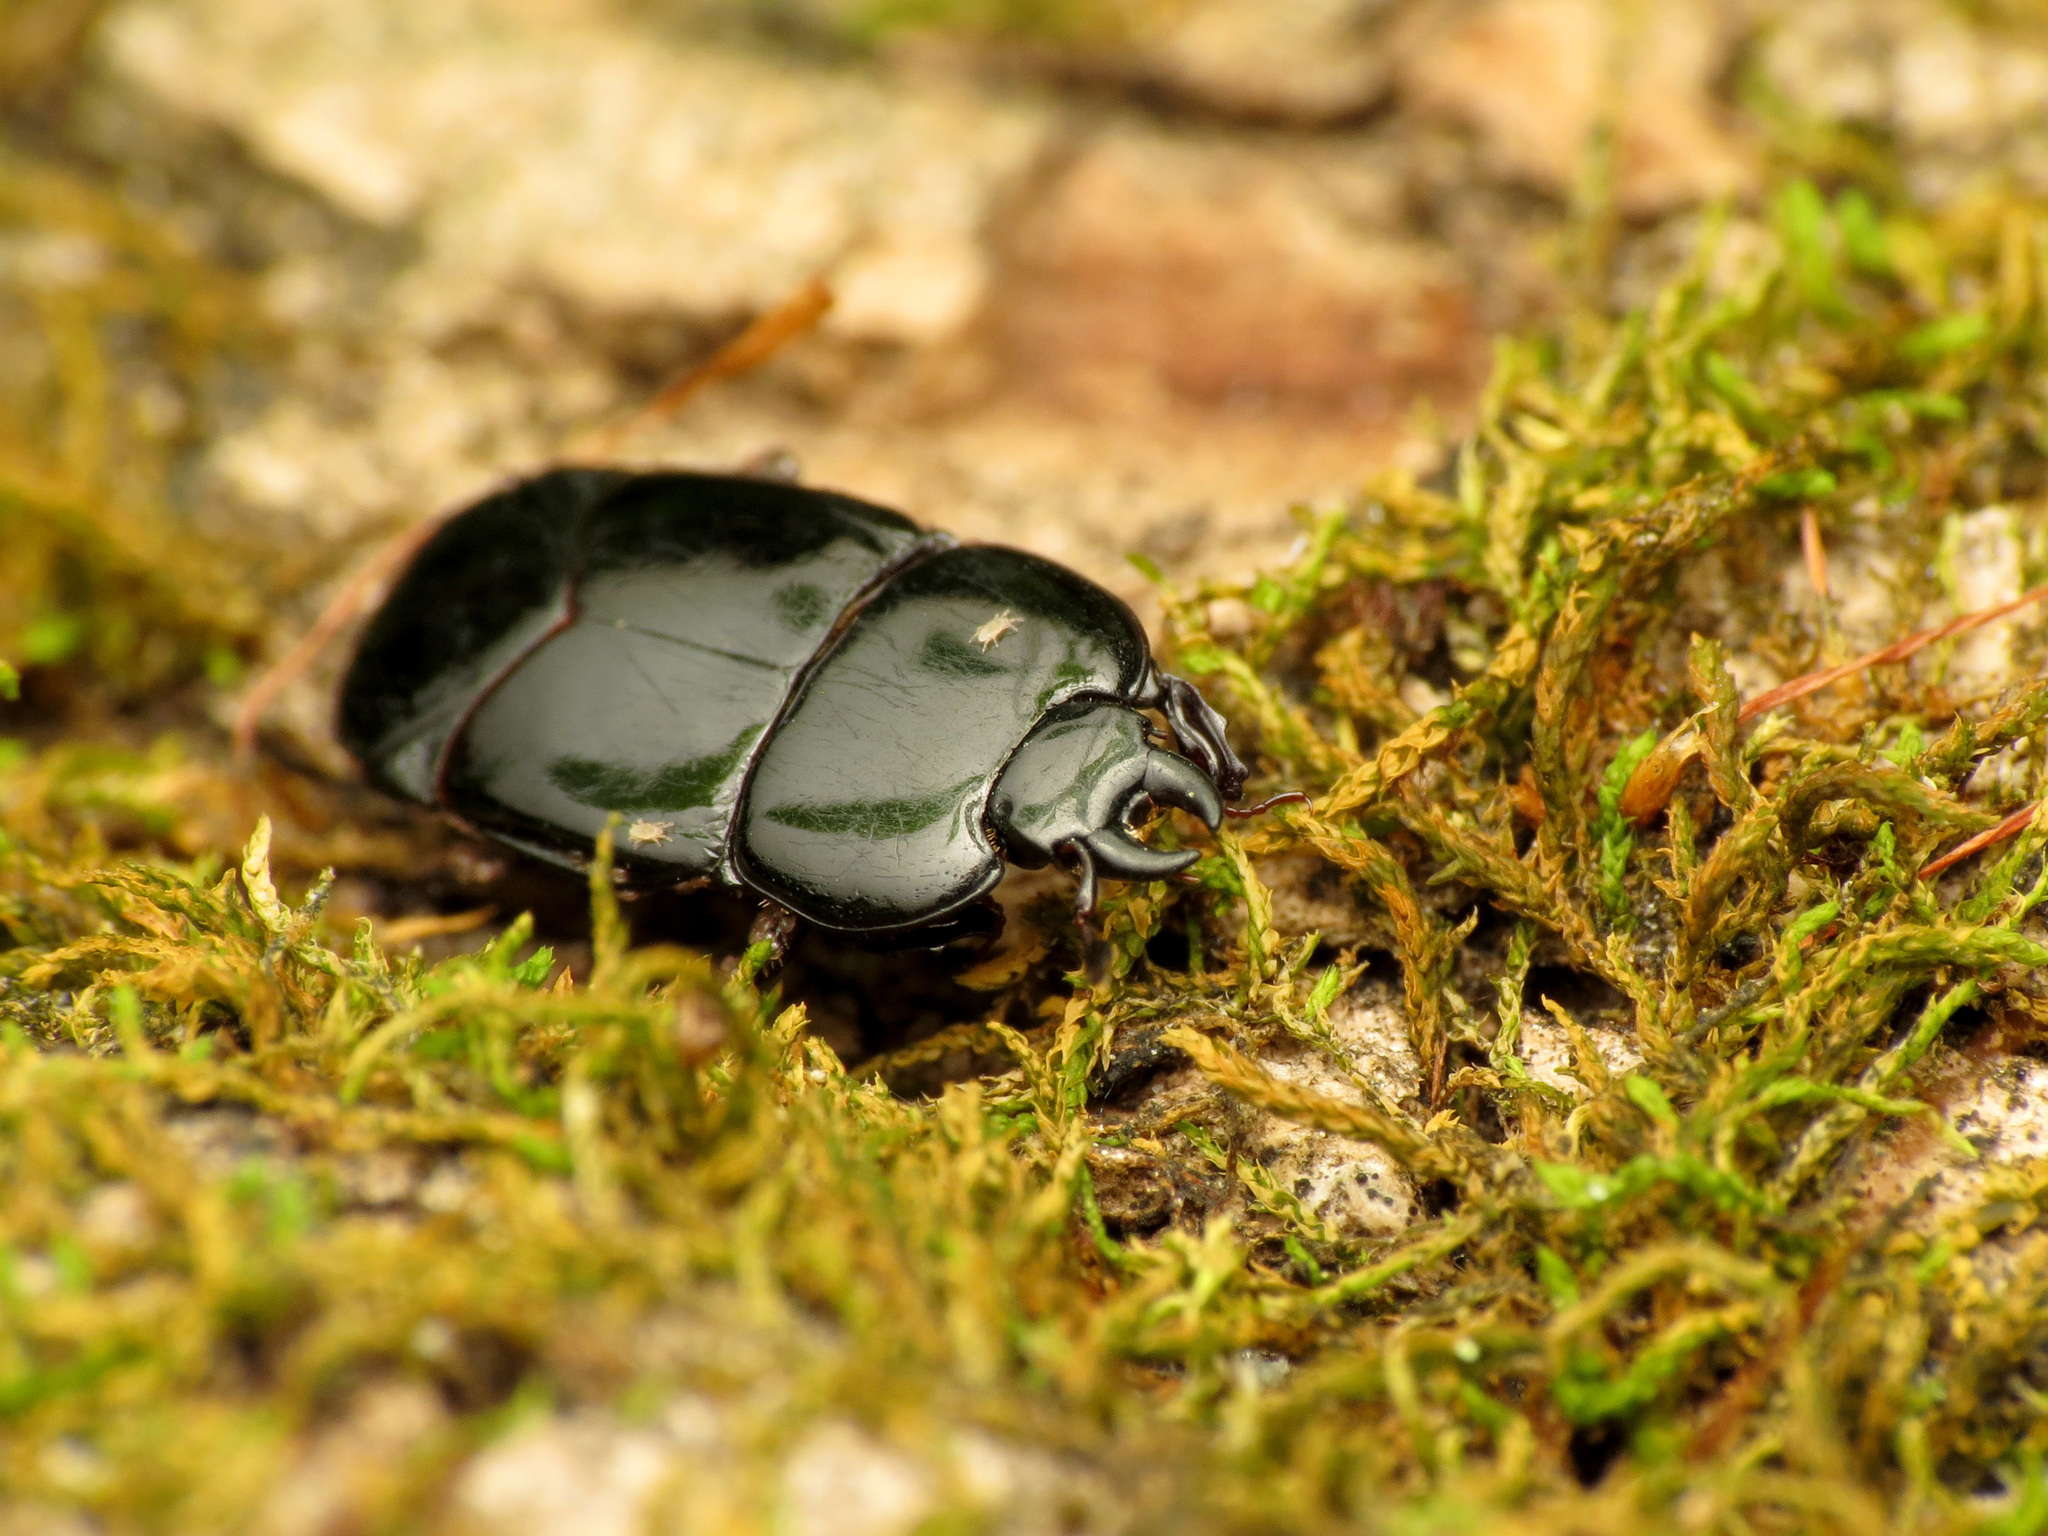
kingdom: Animalia
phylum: Arthropoda
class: Insecta
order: Coleoptera
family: Histeridae
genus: Hololepta
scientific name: Hololepta aequalis
